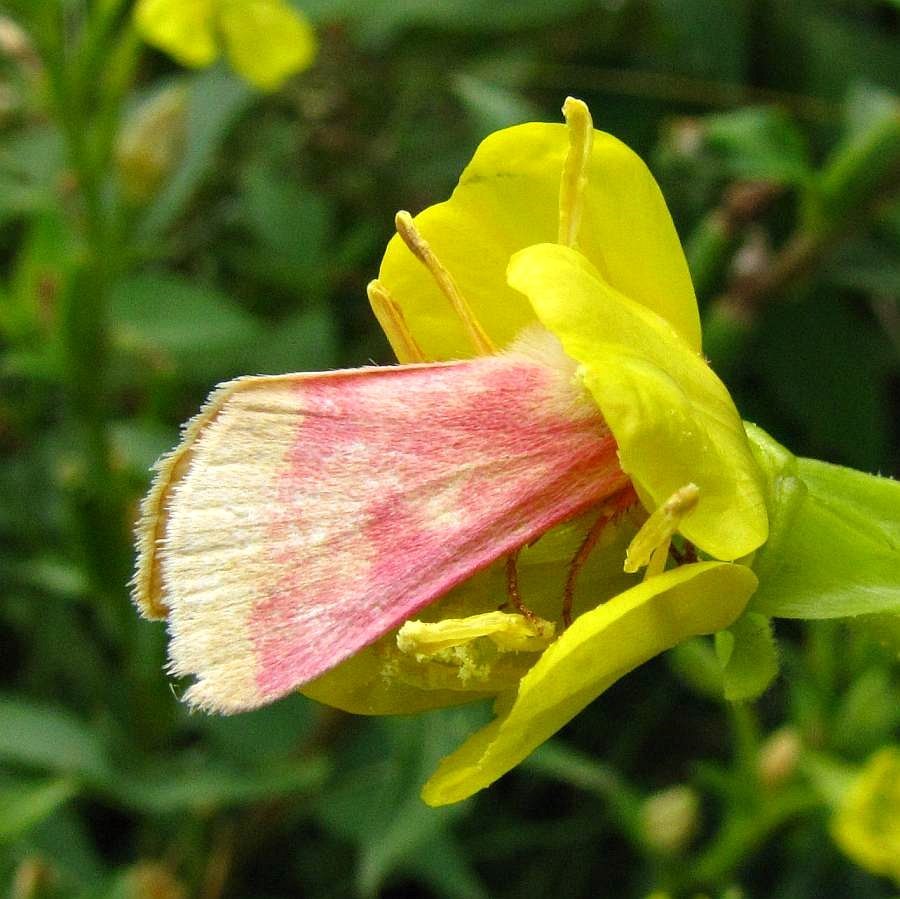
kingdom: Animalia
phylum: Arthropoda
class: Insecta
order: Lepidoptera
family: Noctuidae
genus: Schinia
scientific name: Schinia florida
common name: Primrose moth
